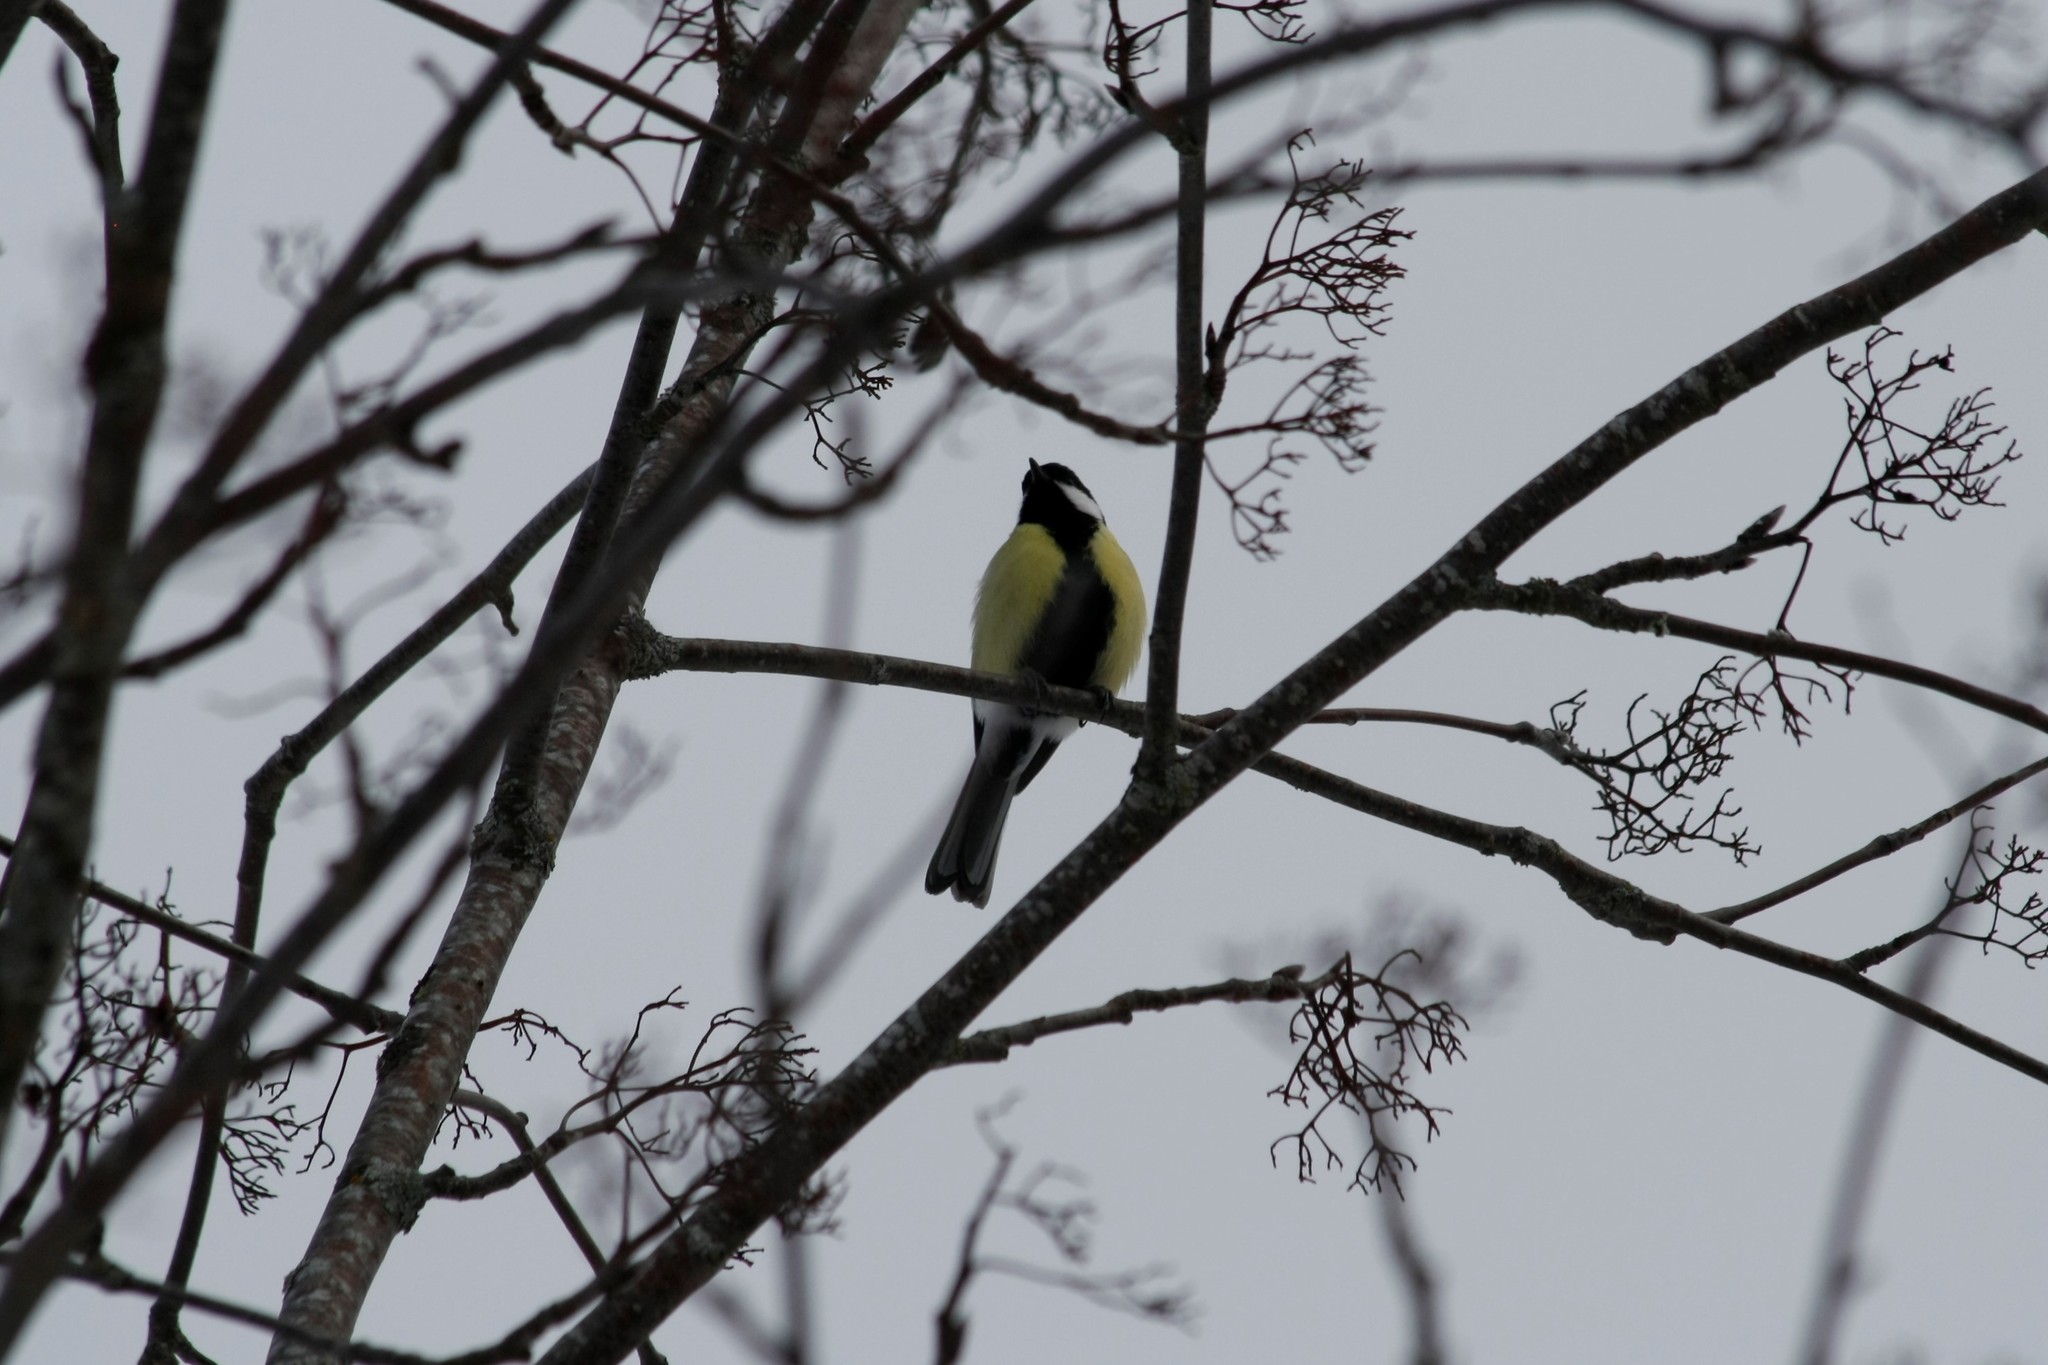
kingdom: Animalia
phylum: Chordata
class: Aves
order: Passeriformes
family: Paridae
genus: Parus
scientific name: Parus major
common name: Great tit
